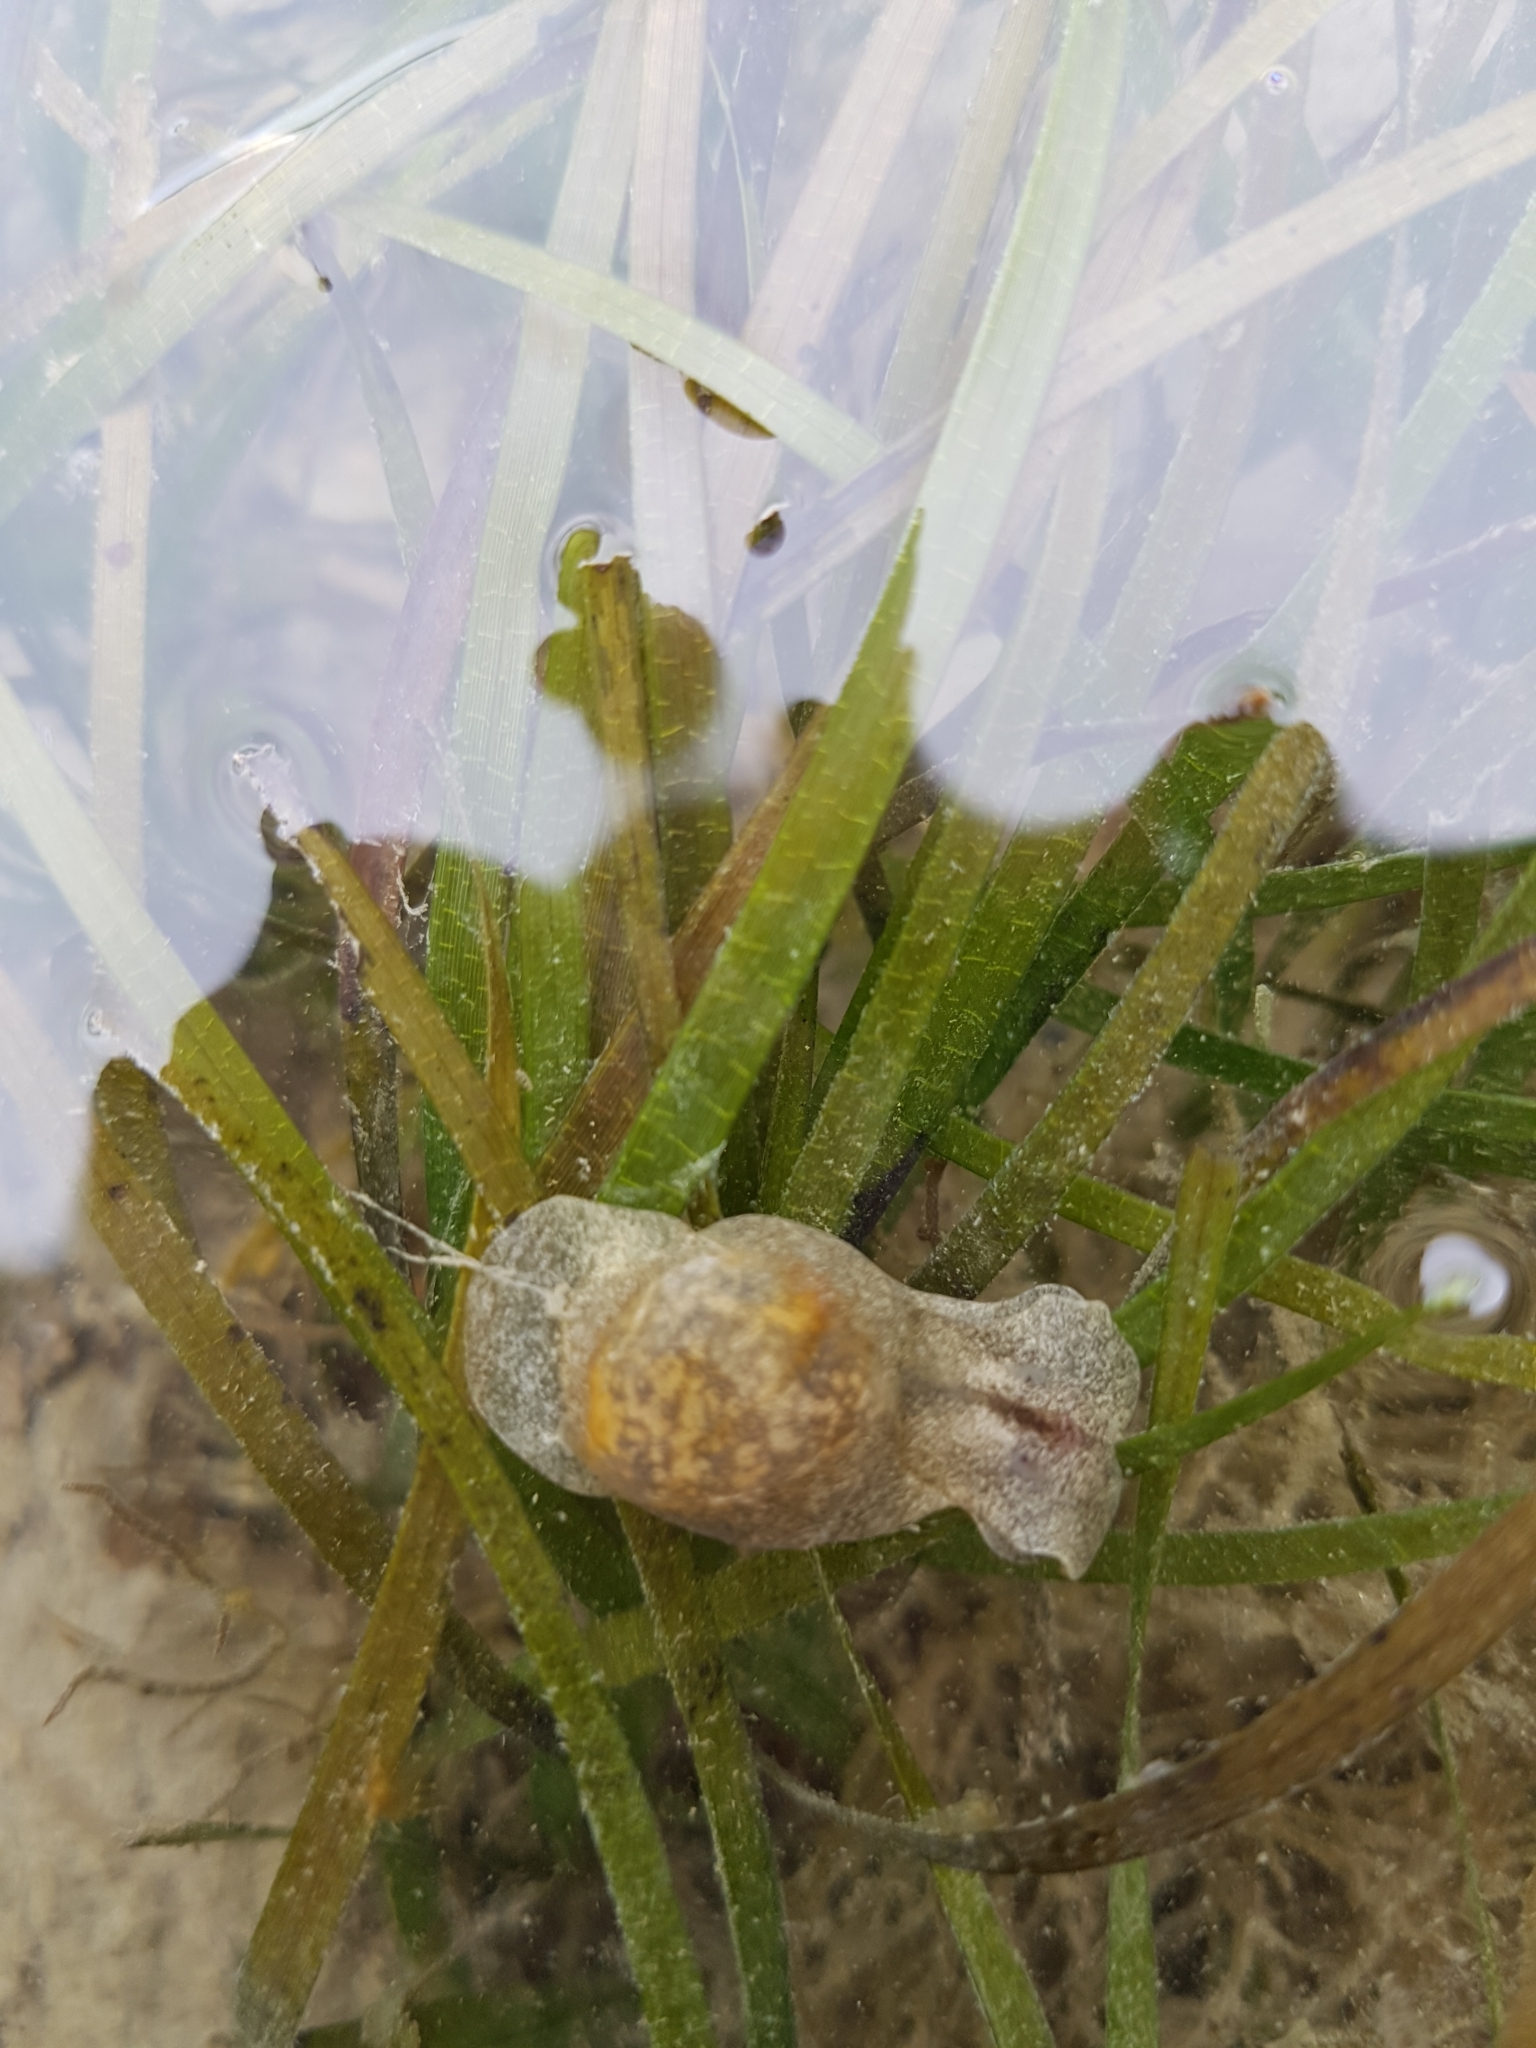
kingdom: Animalia
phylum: Mollusca
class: Gastropoda
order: Cephalaspidea
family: Haminoeidae
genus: Papawera
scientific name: Papawera zelandiae
